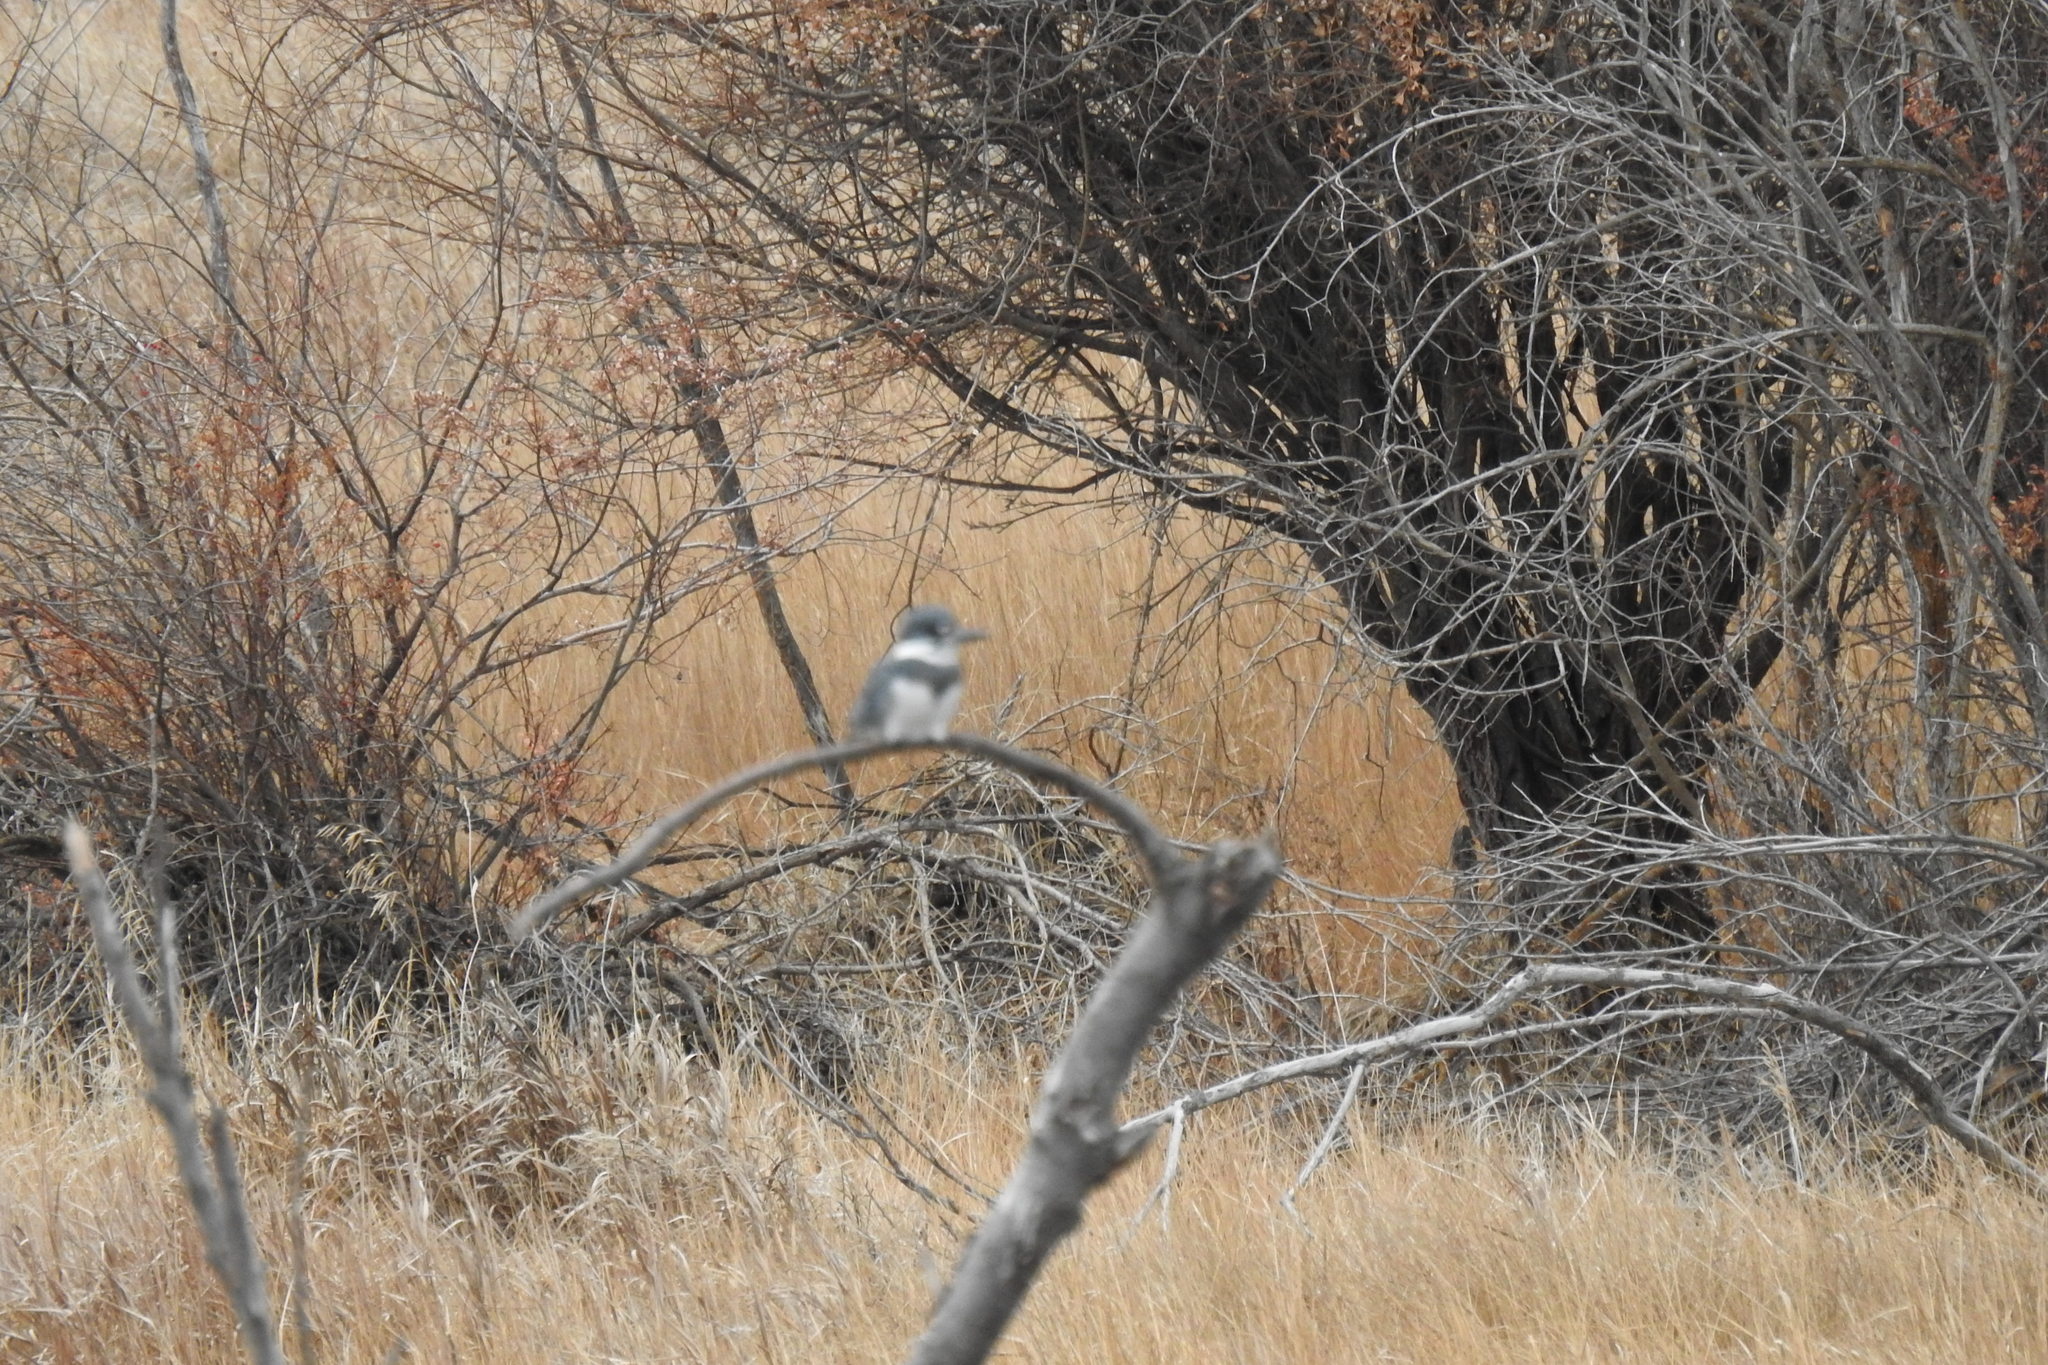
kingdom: Animalia
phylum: Chordata
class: Aves
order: Coraciiformes
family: Alcedinidae
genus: Megaceryle
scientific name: Megaceryle alcyon
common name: Belted kingfisher
